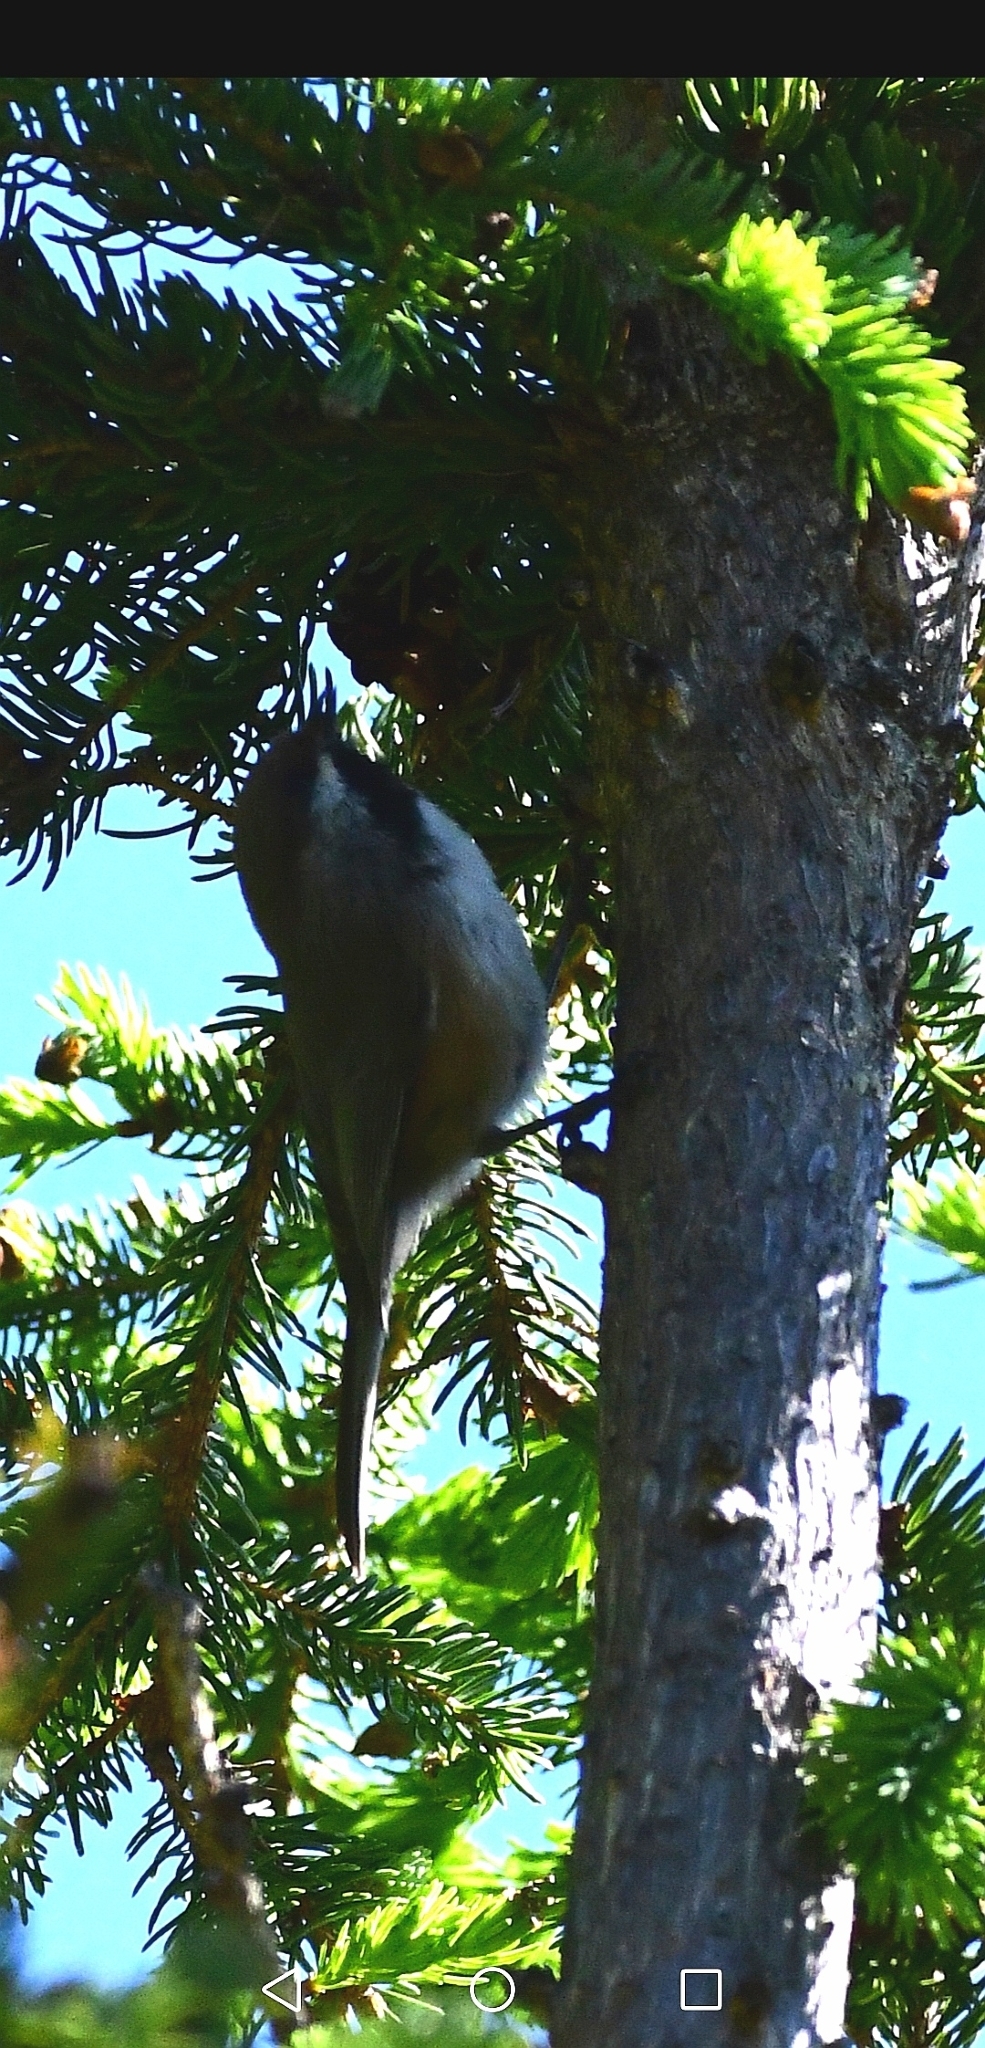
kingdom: Animalia
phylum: Chordata
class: Aves
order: Passeriformes
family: Paridae
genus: Poecile
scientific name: Poecile hudsonicus
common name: Boreal chickadee
